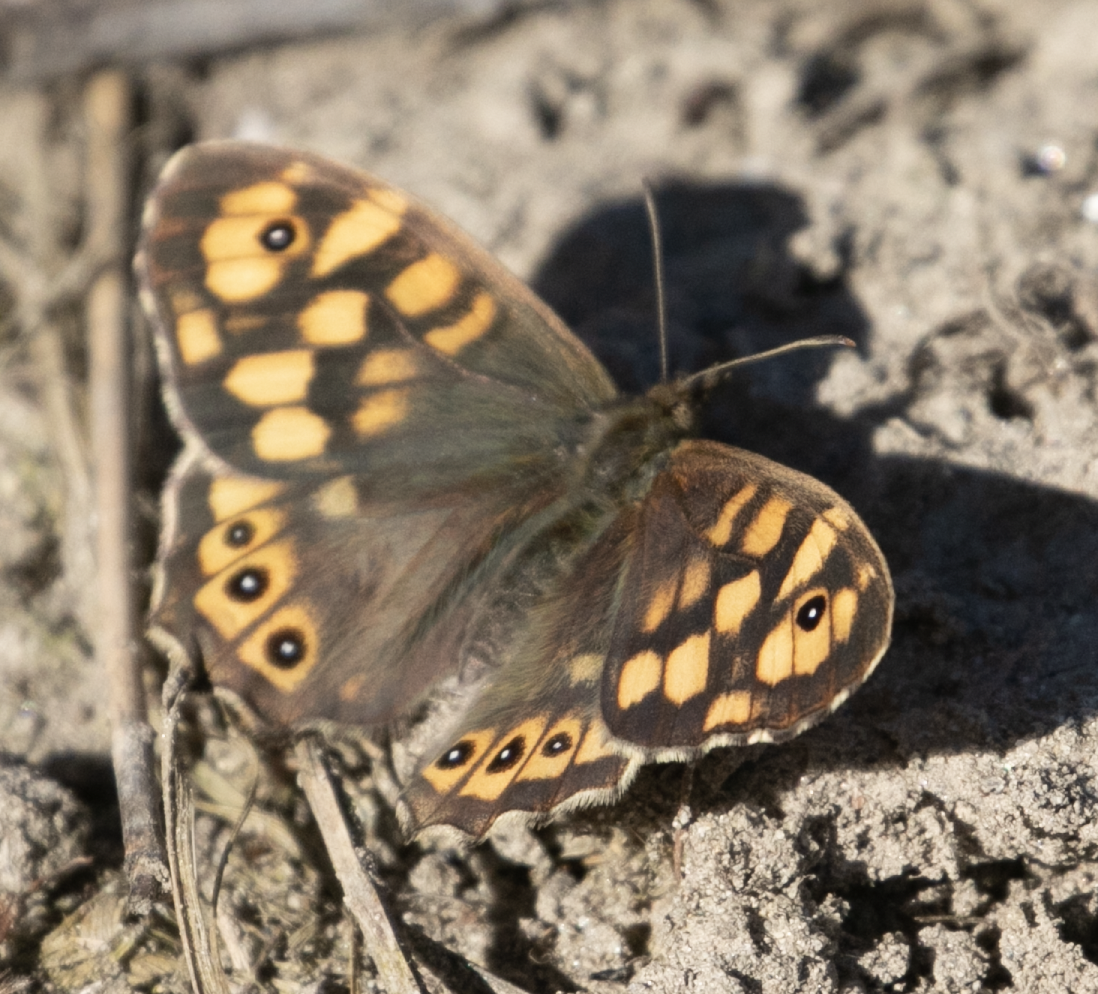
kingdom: Animalia
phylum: Arthropoda
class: Insecta
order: Lepidoptera
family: Nymphalidae
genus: Pararge
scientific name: Pararge aegeria
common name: Speckled wood
